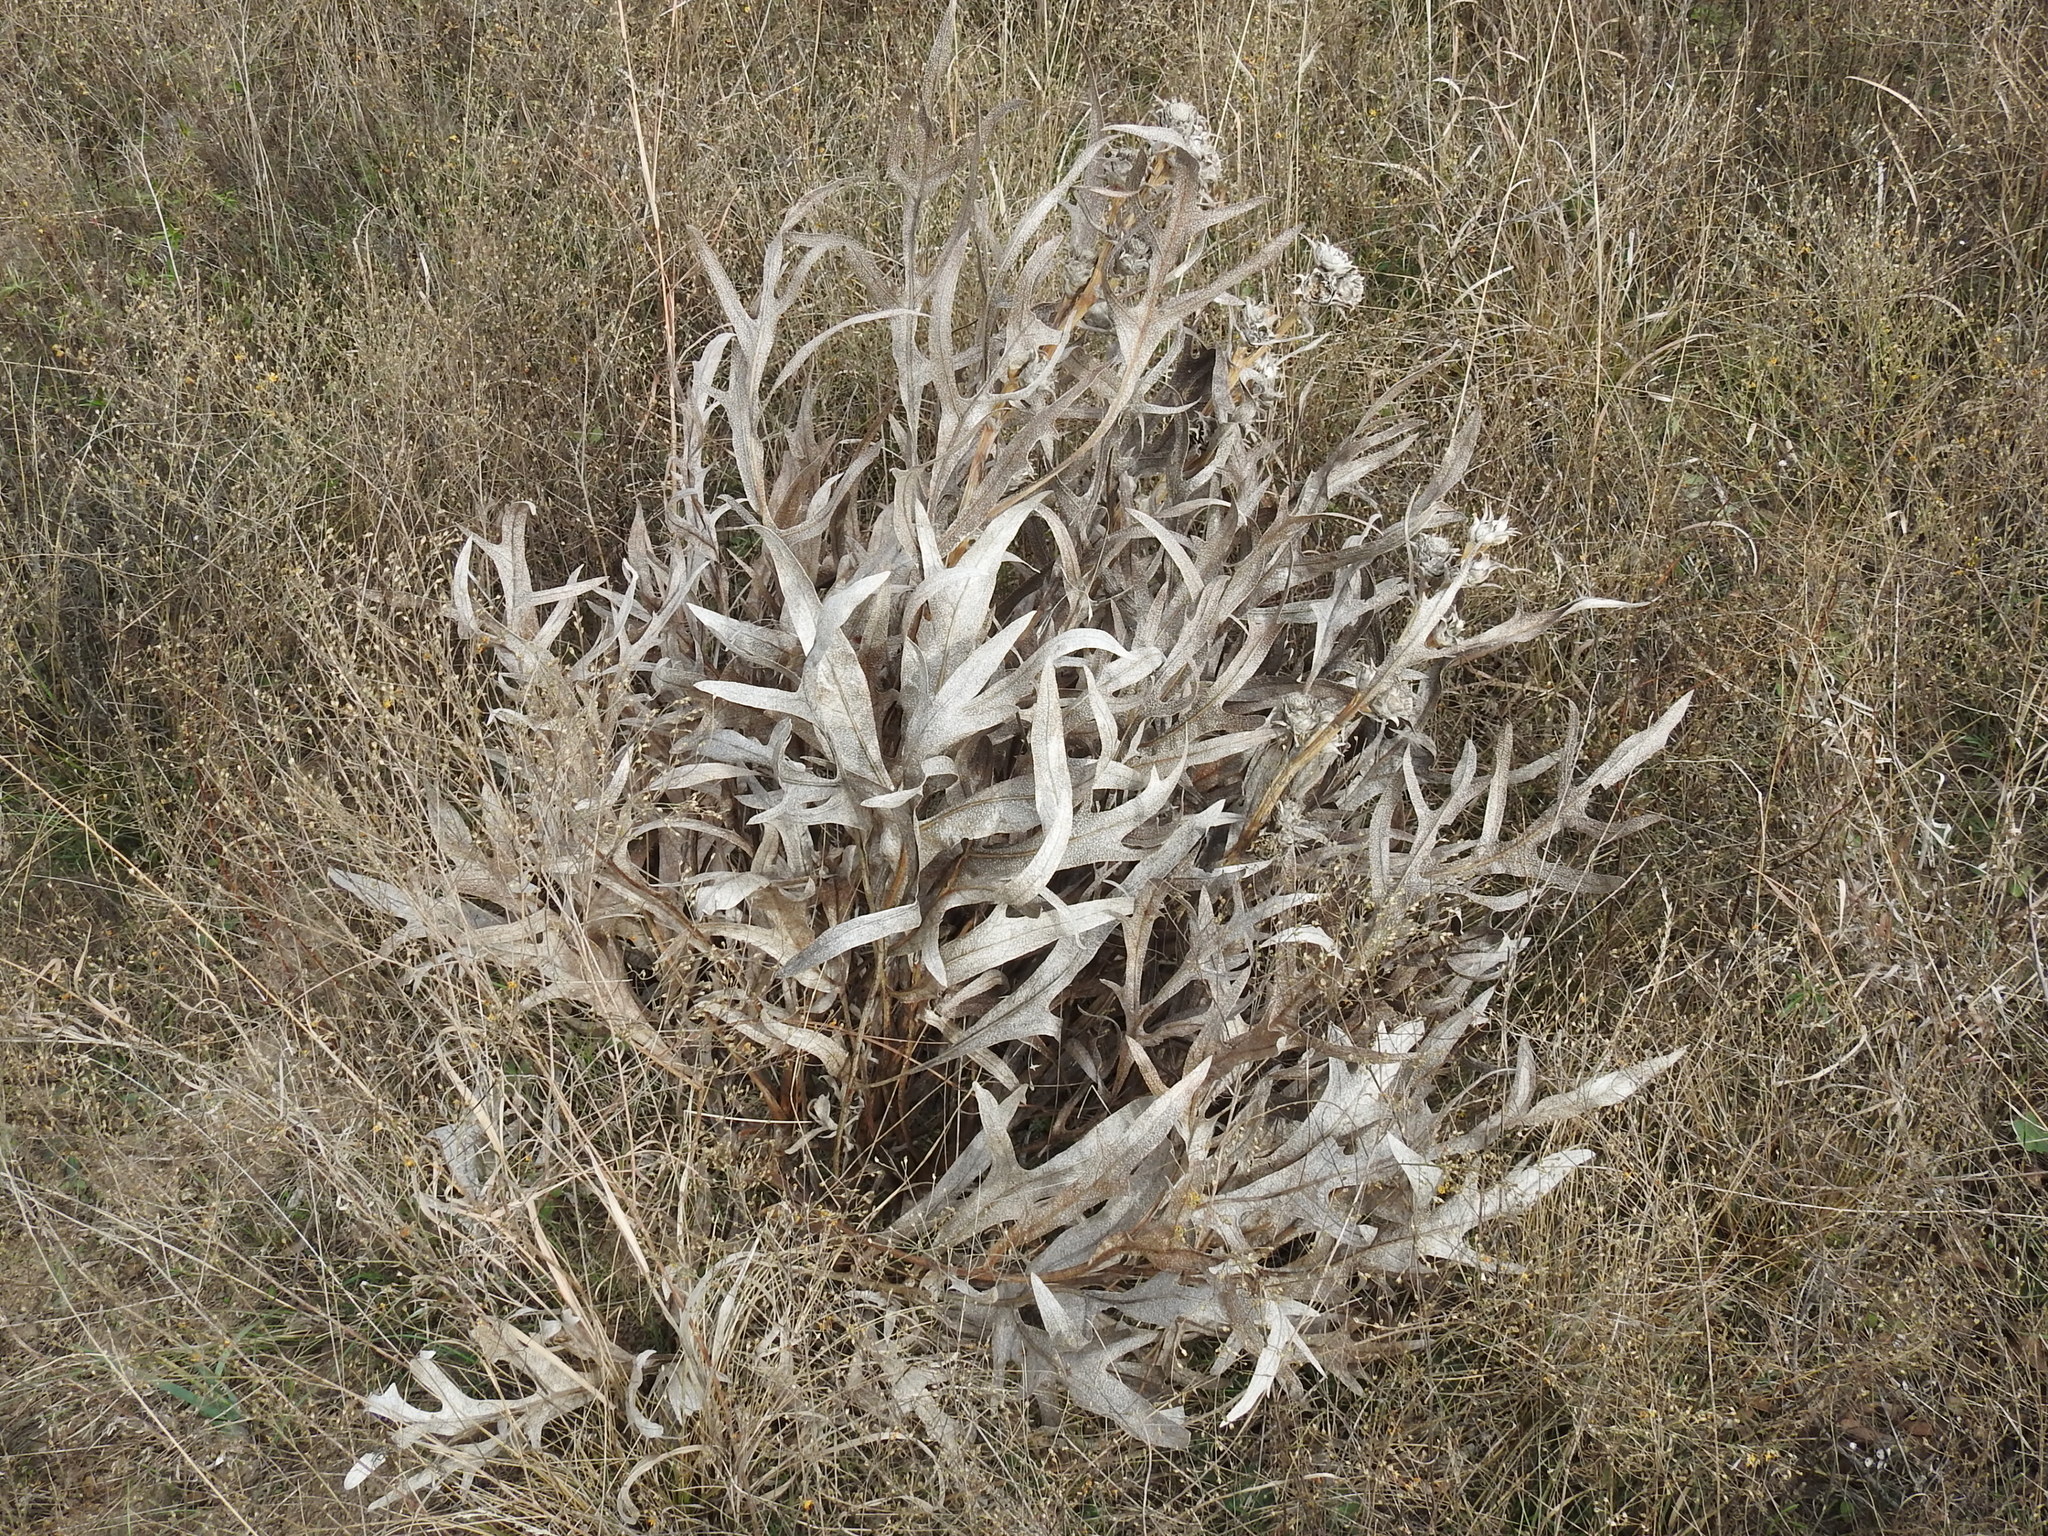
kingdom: Plantae
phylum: Tracheophyta
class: Magnoliopsida
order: Asterales
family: Asteraceae
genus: Silphium
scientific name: Silphium albiflorum
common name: White rosinweed
